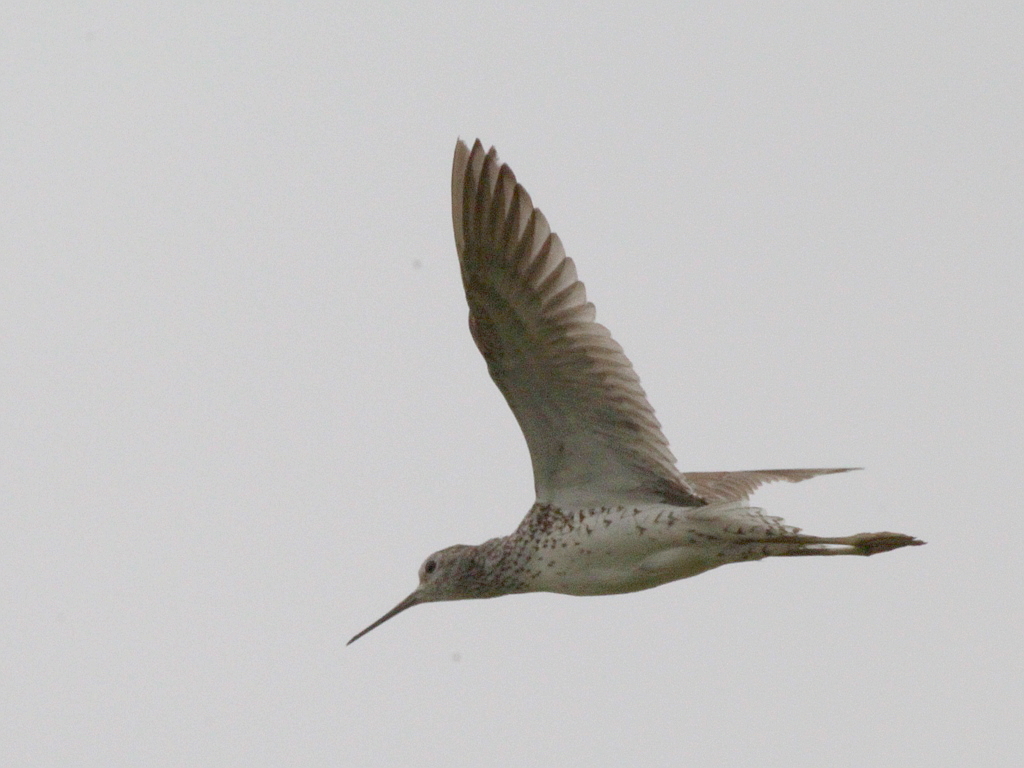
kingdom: Animalia
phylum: Chordata
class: Aves
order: Charadriiformes
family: Scolopacidae
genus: Tringa
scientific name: Tringa stagnatilis
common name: Marsh sandpiper
